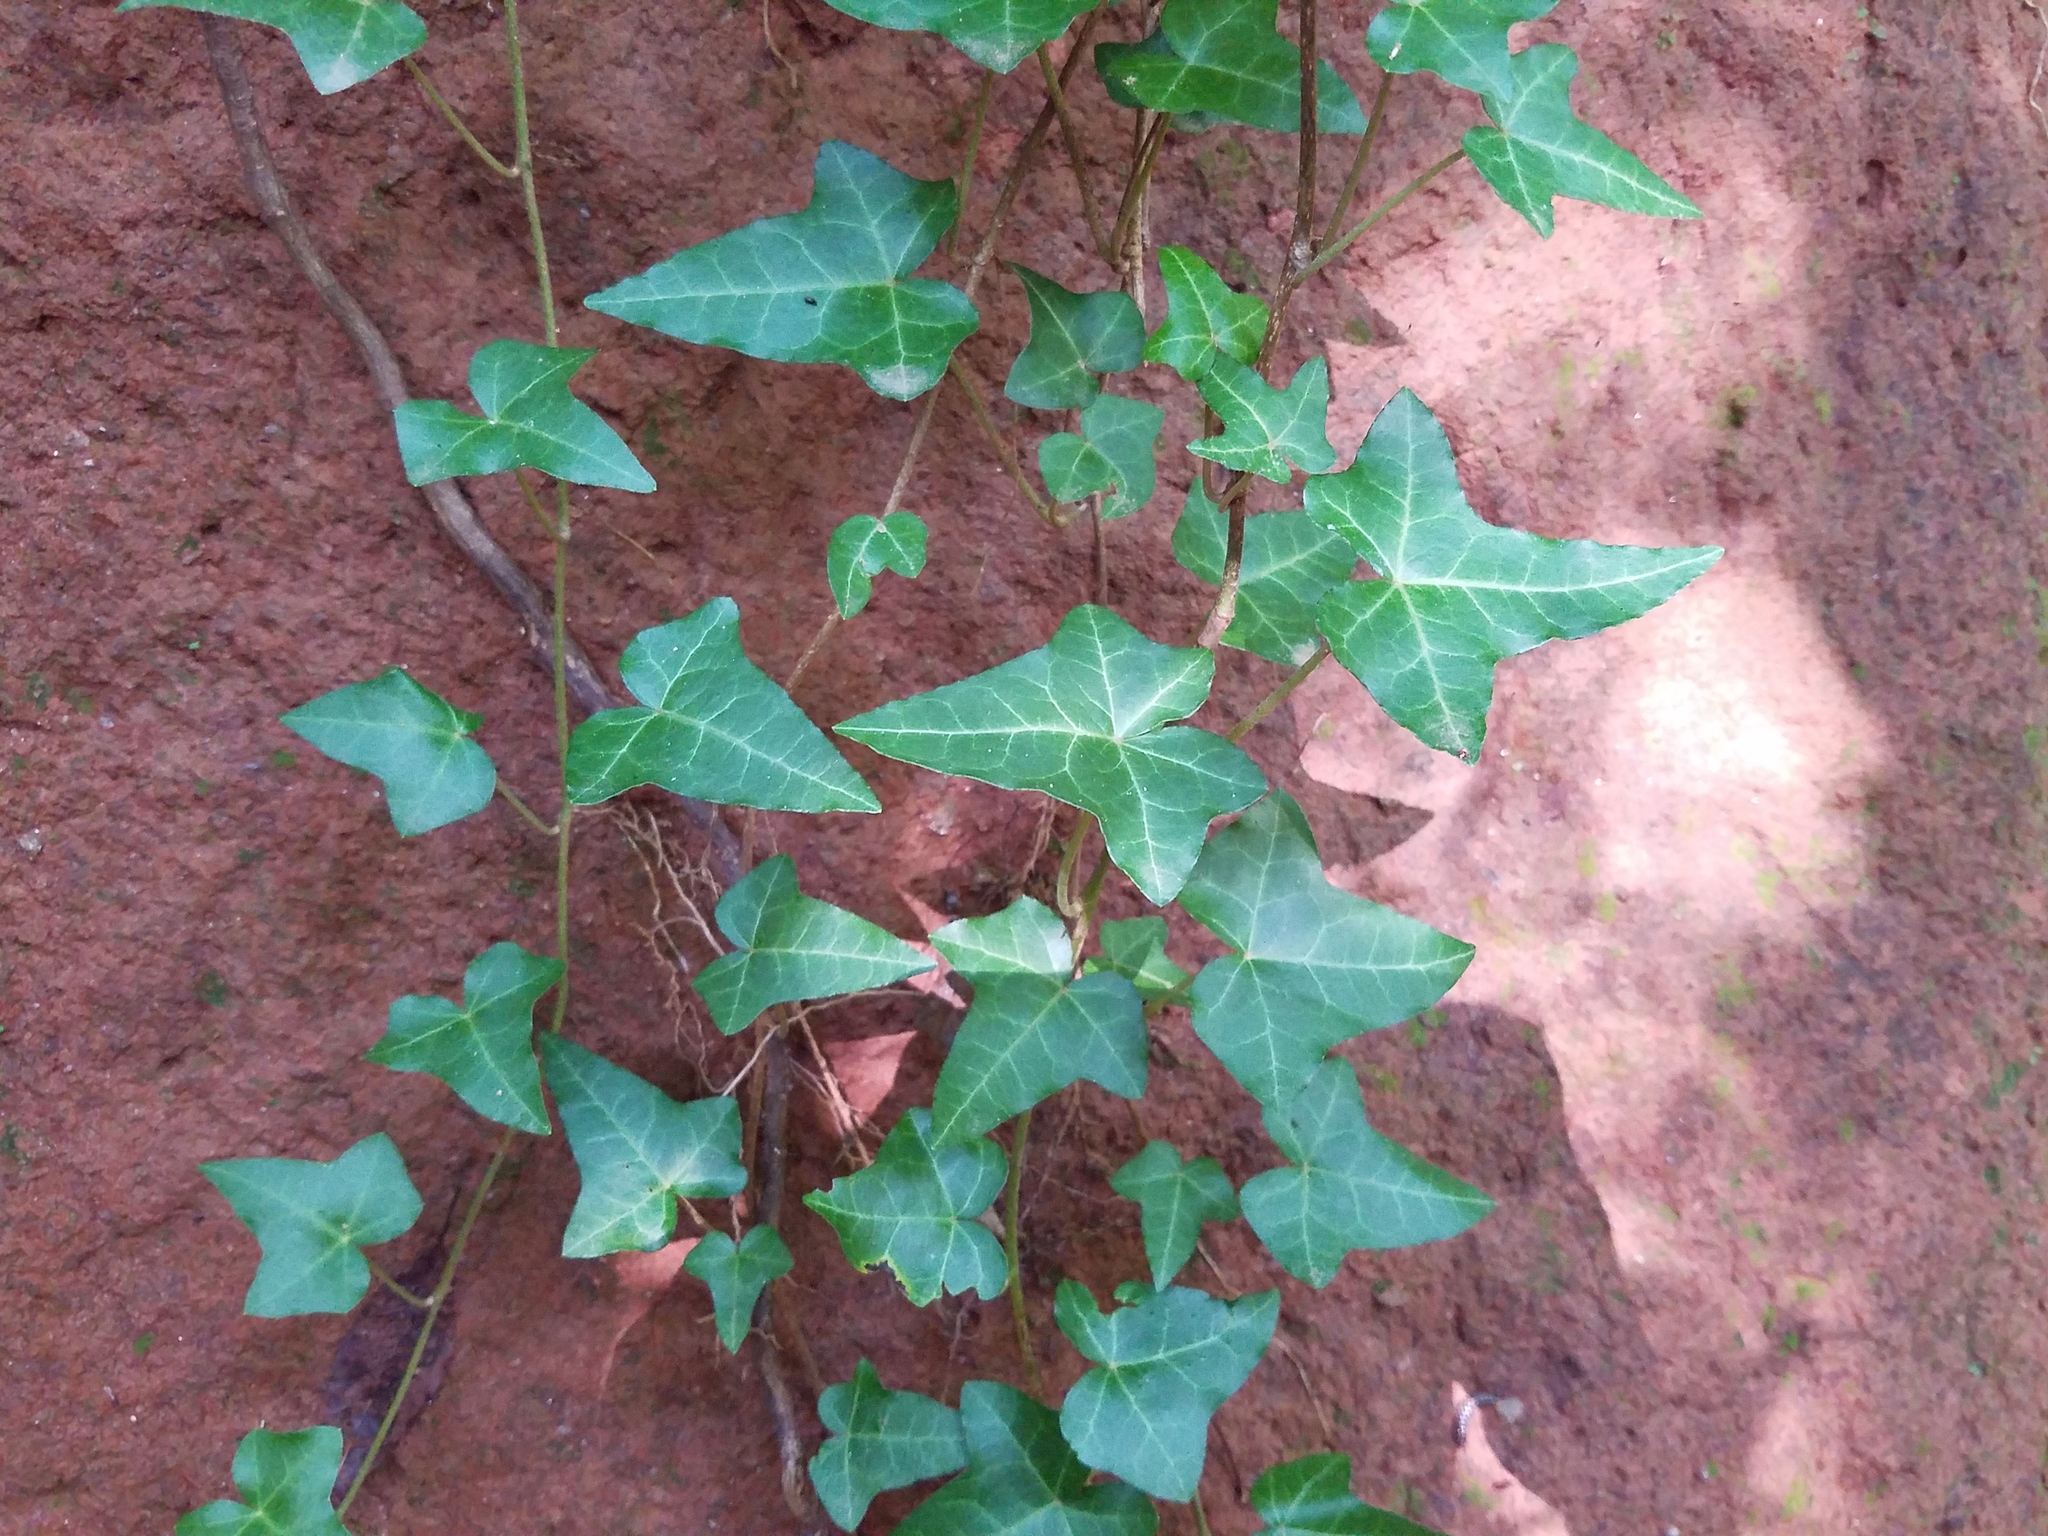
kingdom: Plantae
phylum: Tracheophyta
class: Magnoliopsida
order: Apiales
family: Araliaceae
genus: Hedera
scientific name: Hedera helix
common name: Ivy
